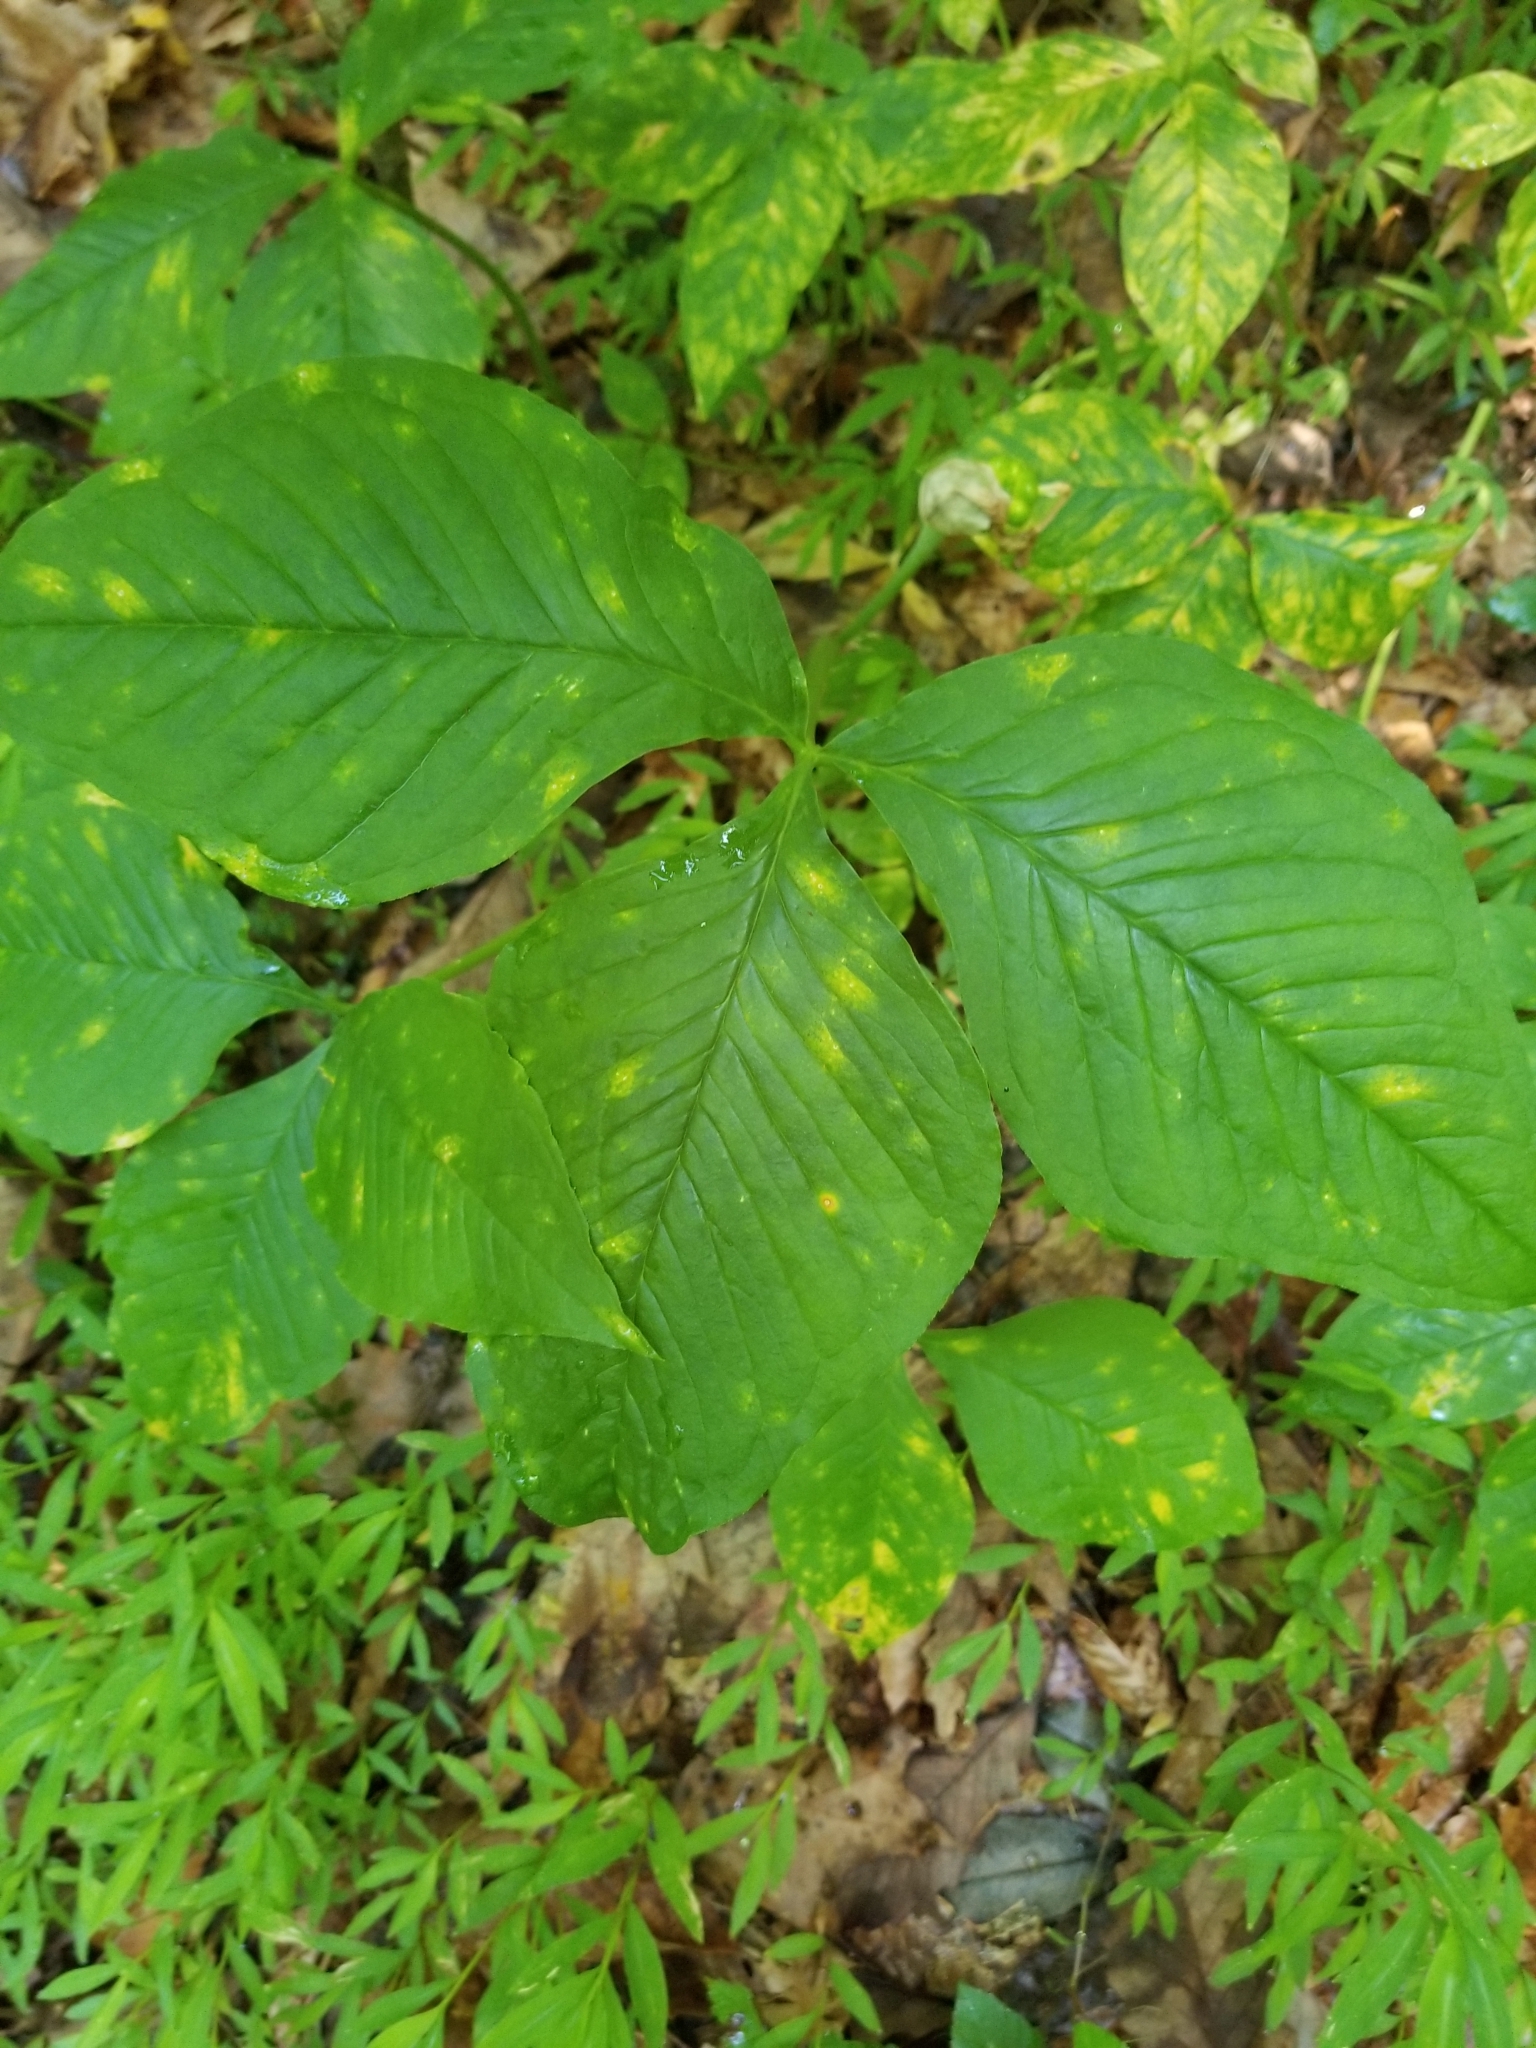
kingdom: Plantae
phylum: Tracheophyta
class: Liliopsida
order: Alismatales
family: Araceae
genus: Arisaema
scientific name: Arisaema triphyllum
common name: Jack-in-the-pulpit
